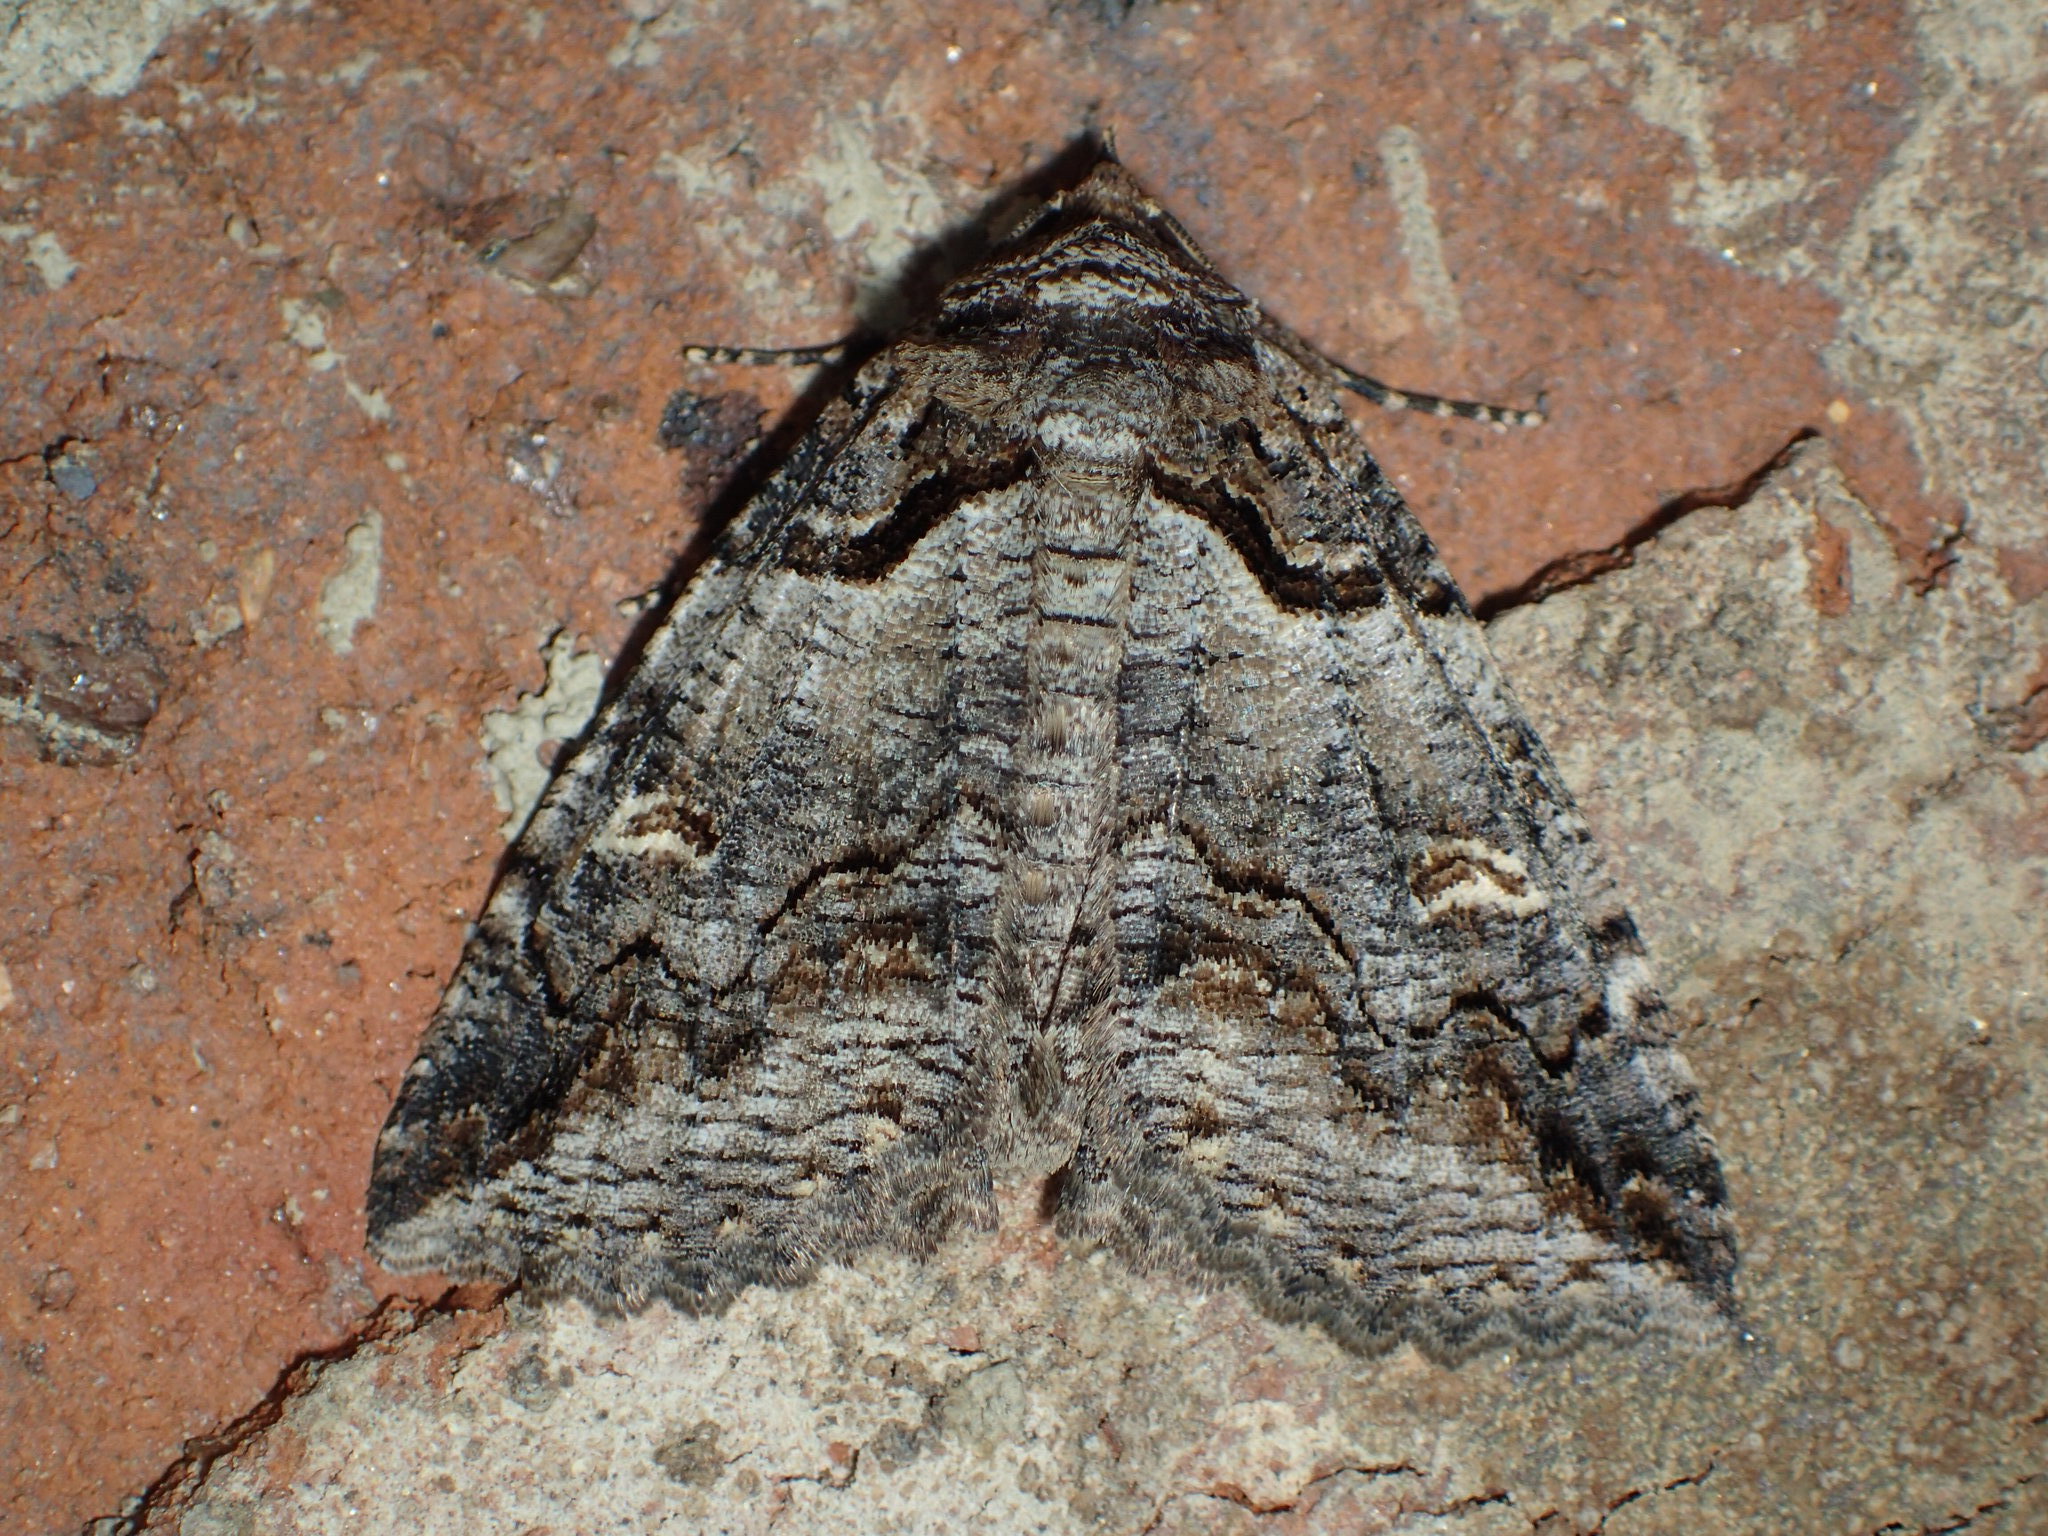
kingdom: Animalia
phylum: Arthropoda
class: Insecta
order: Lepidoptera
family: Erebidae
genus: Zale
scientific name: Zale intenta
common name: Intent zale moth
